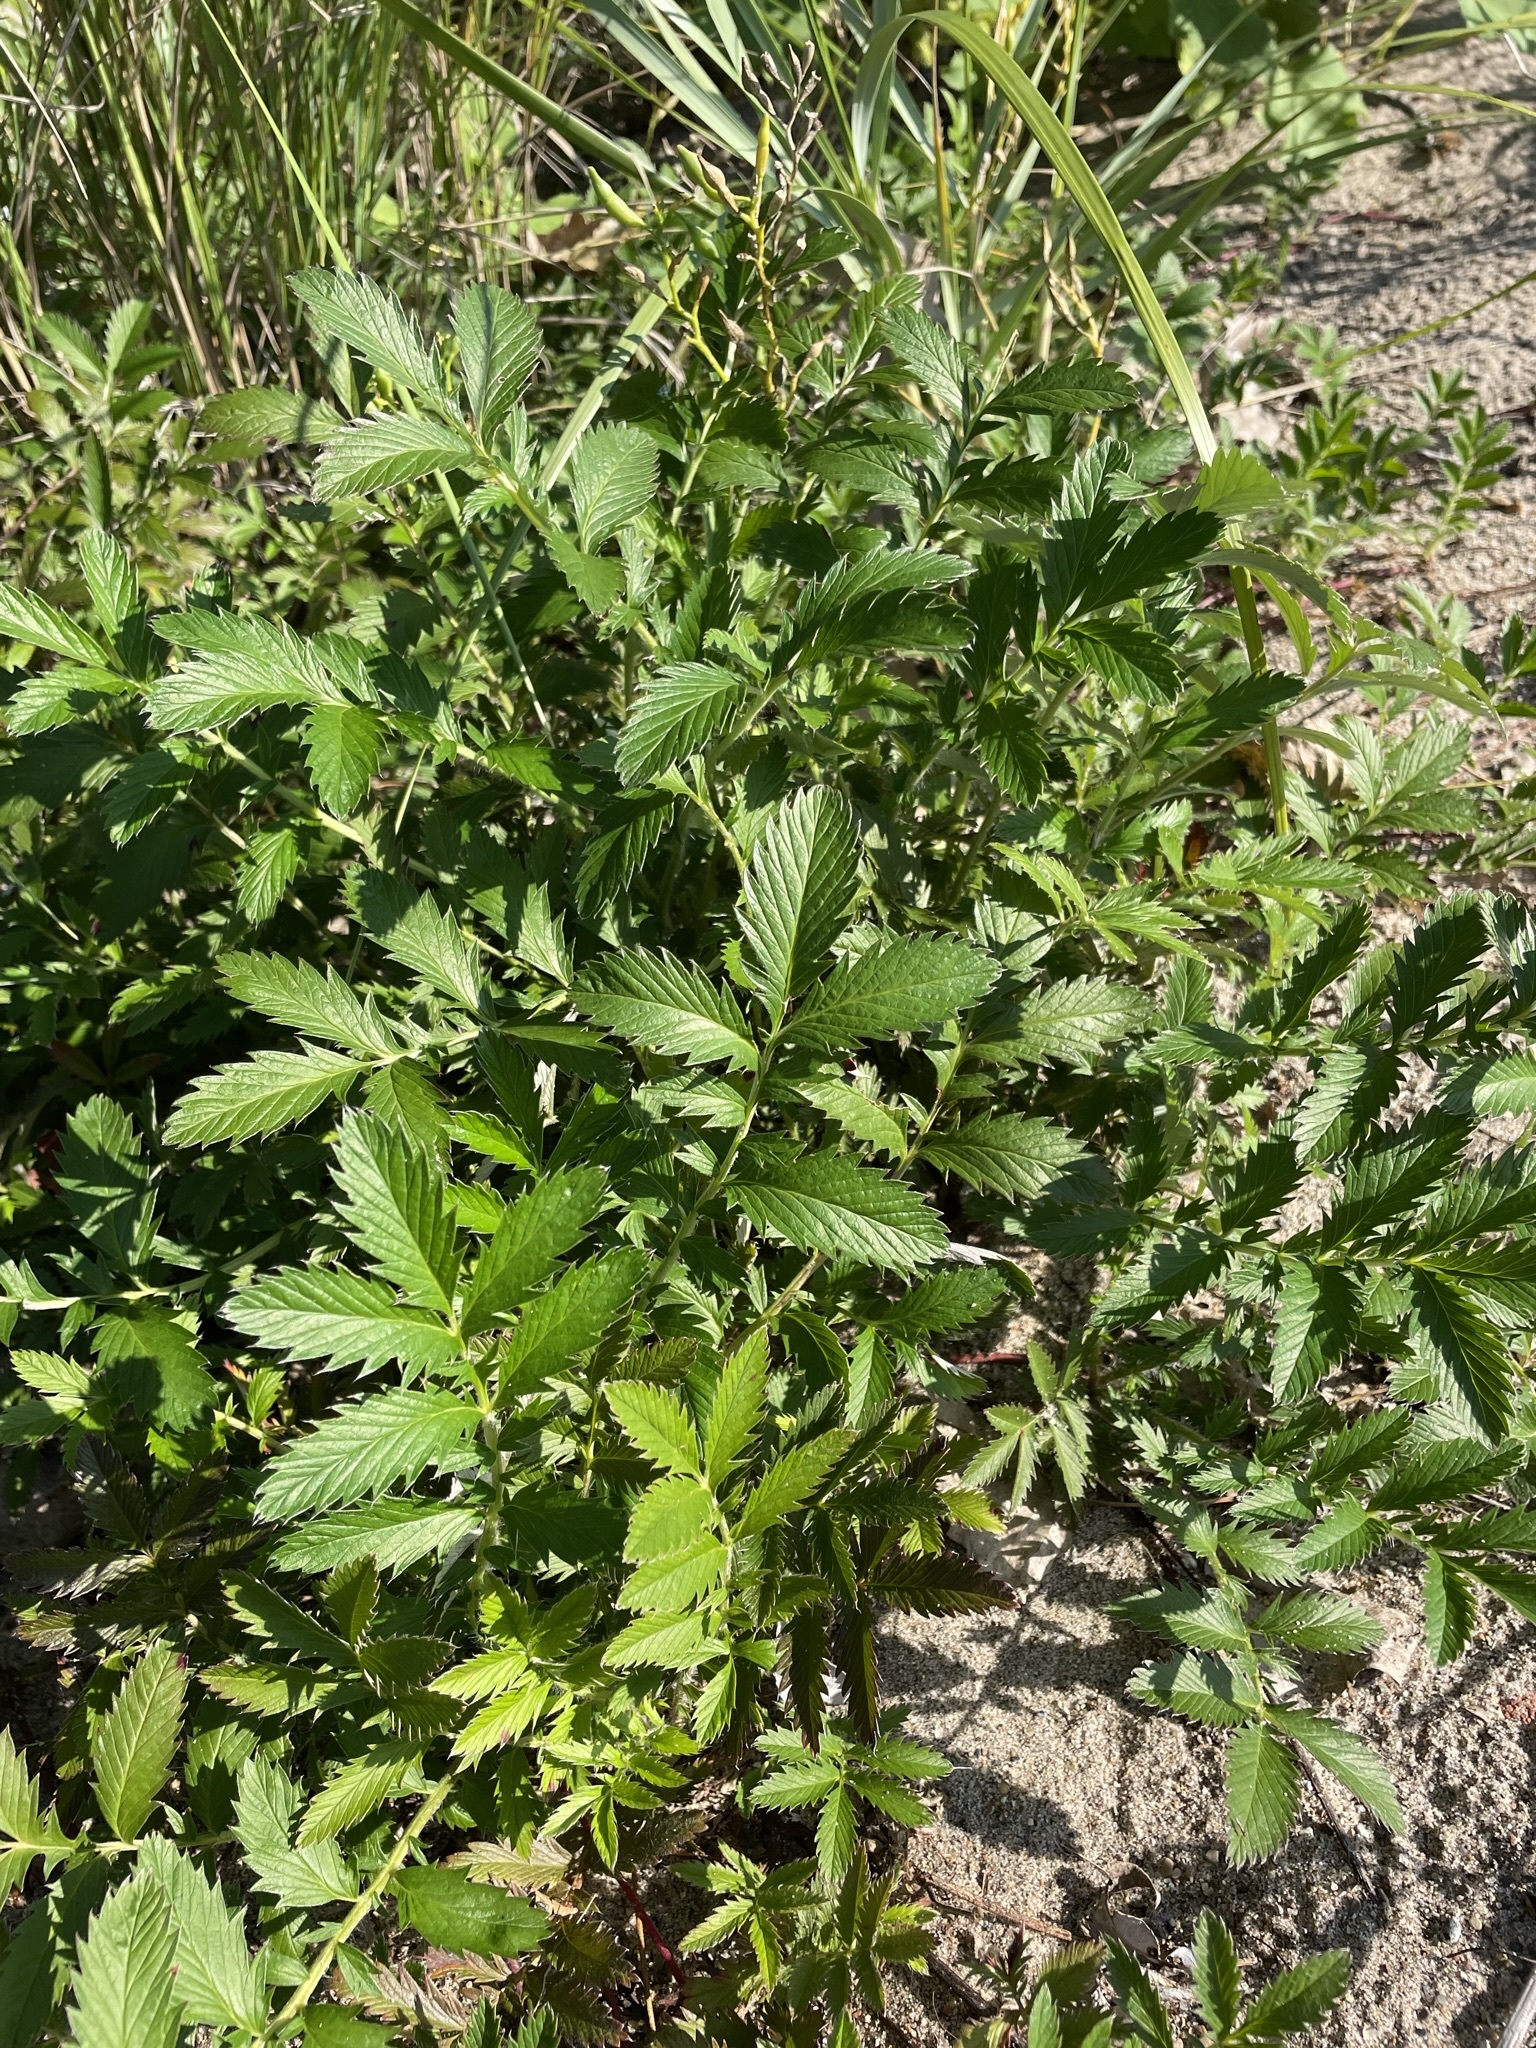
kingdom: Plantae
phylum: Tracheophyta
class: Magnoliopsida
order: Rosales
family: Rosaceae
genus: Argentina
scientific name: Argentina anserina
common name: Common silverweed
